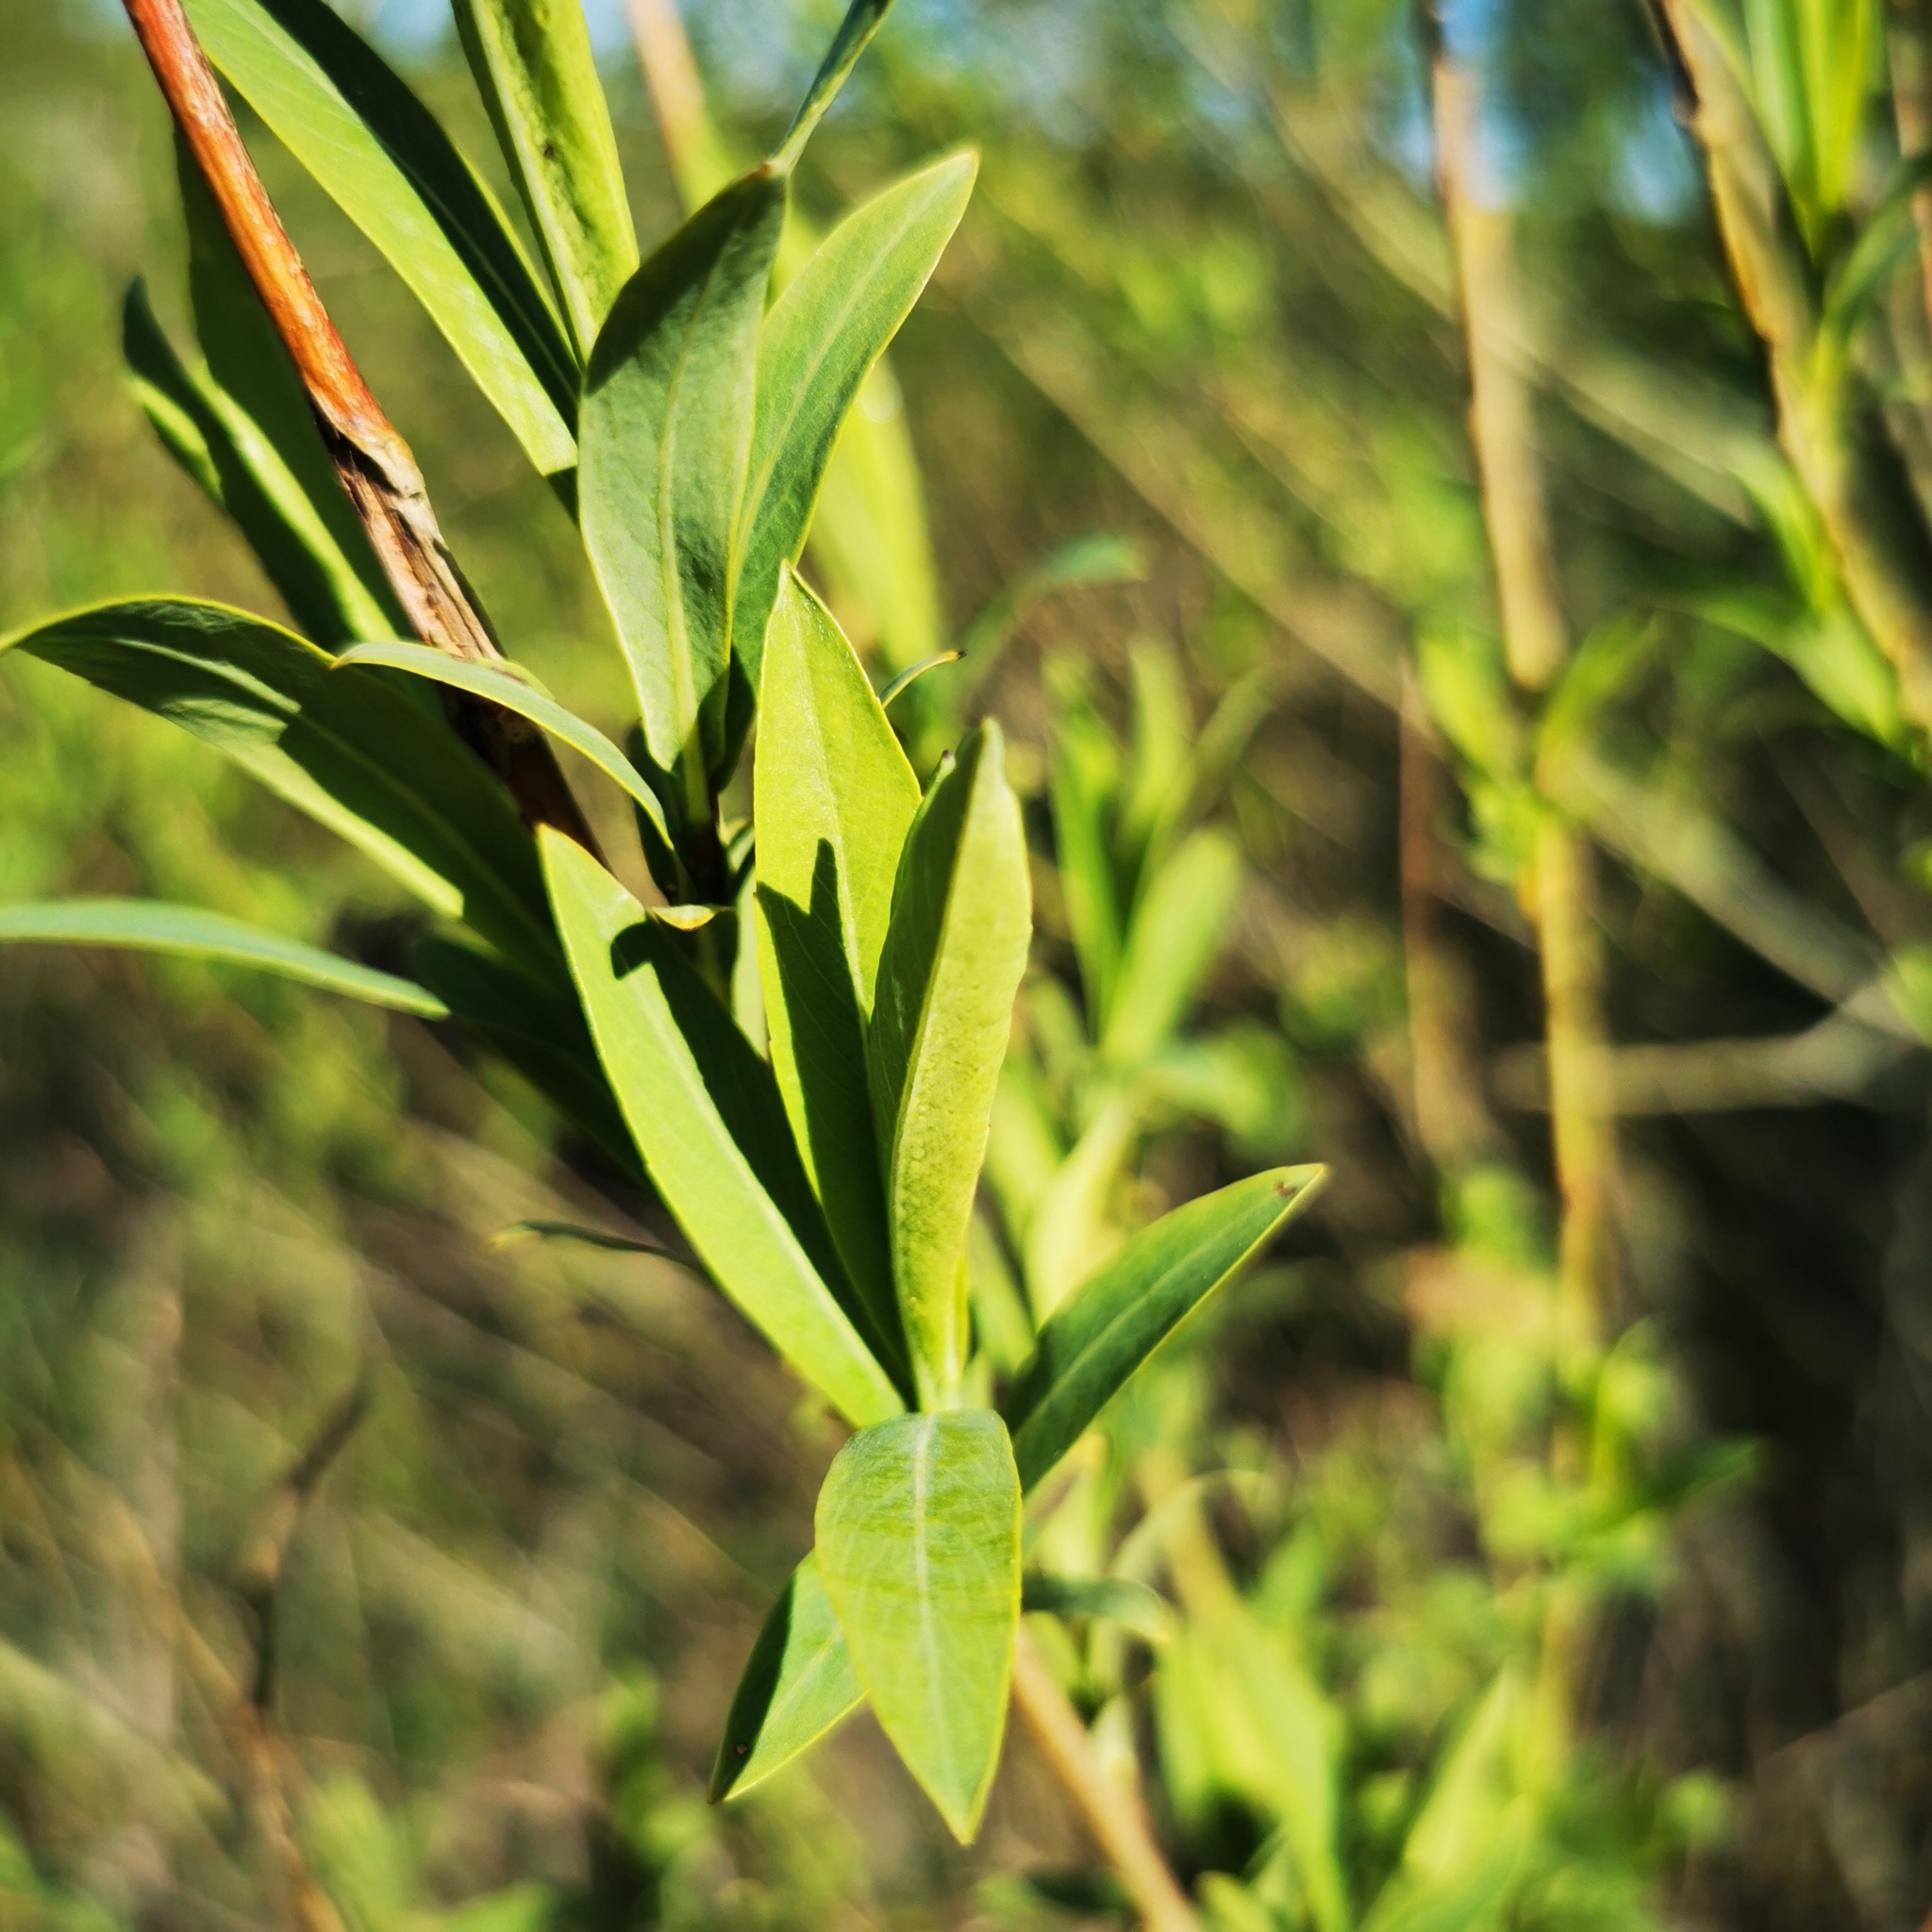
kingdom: Plantae
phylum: Tracheophyta
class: Magnoliopsida
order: Malpighiales
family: Salicaceae
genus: Salix
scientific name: Salix purpurea
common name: Purple willow
